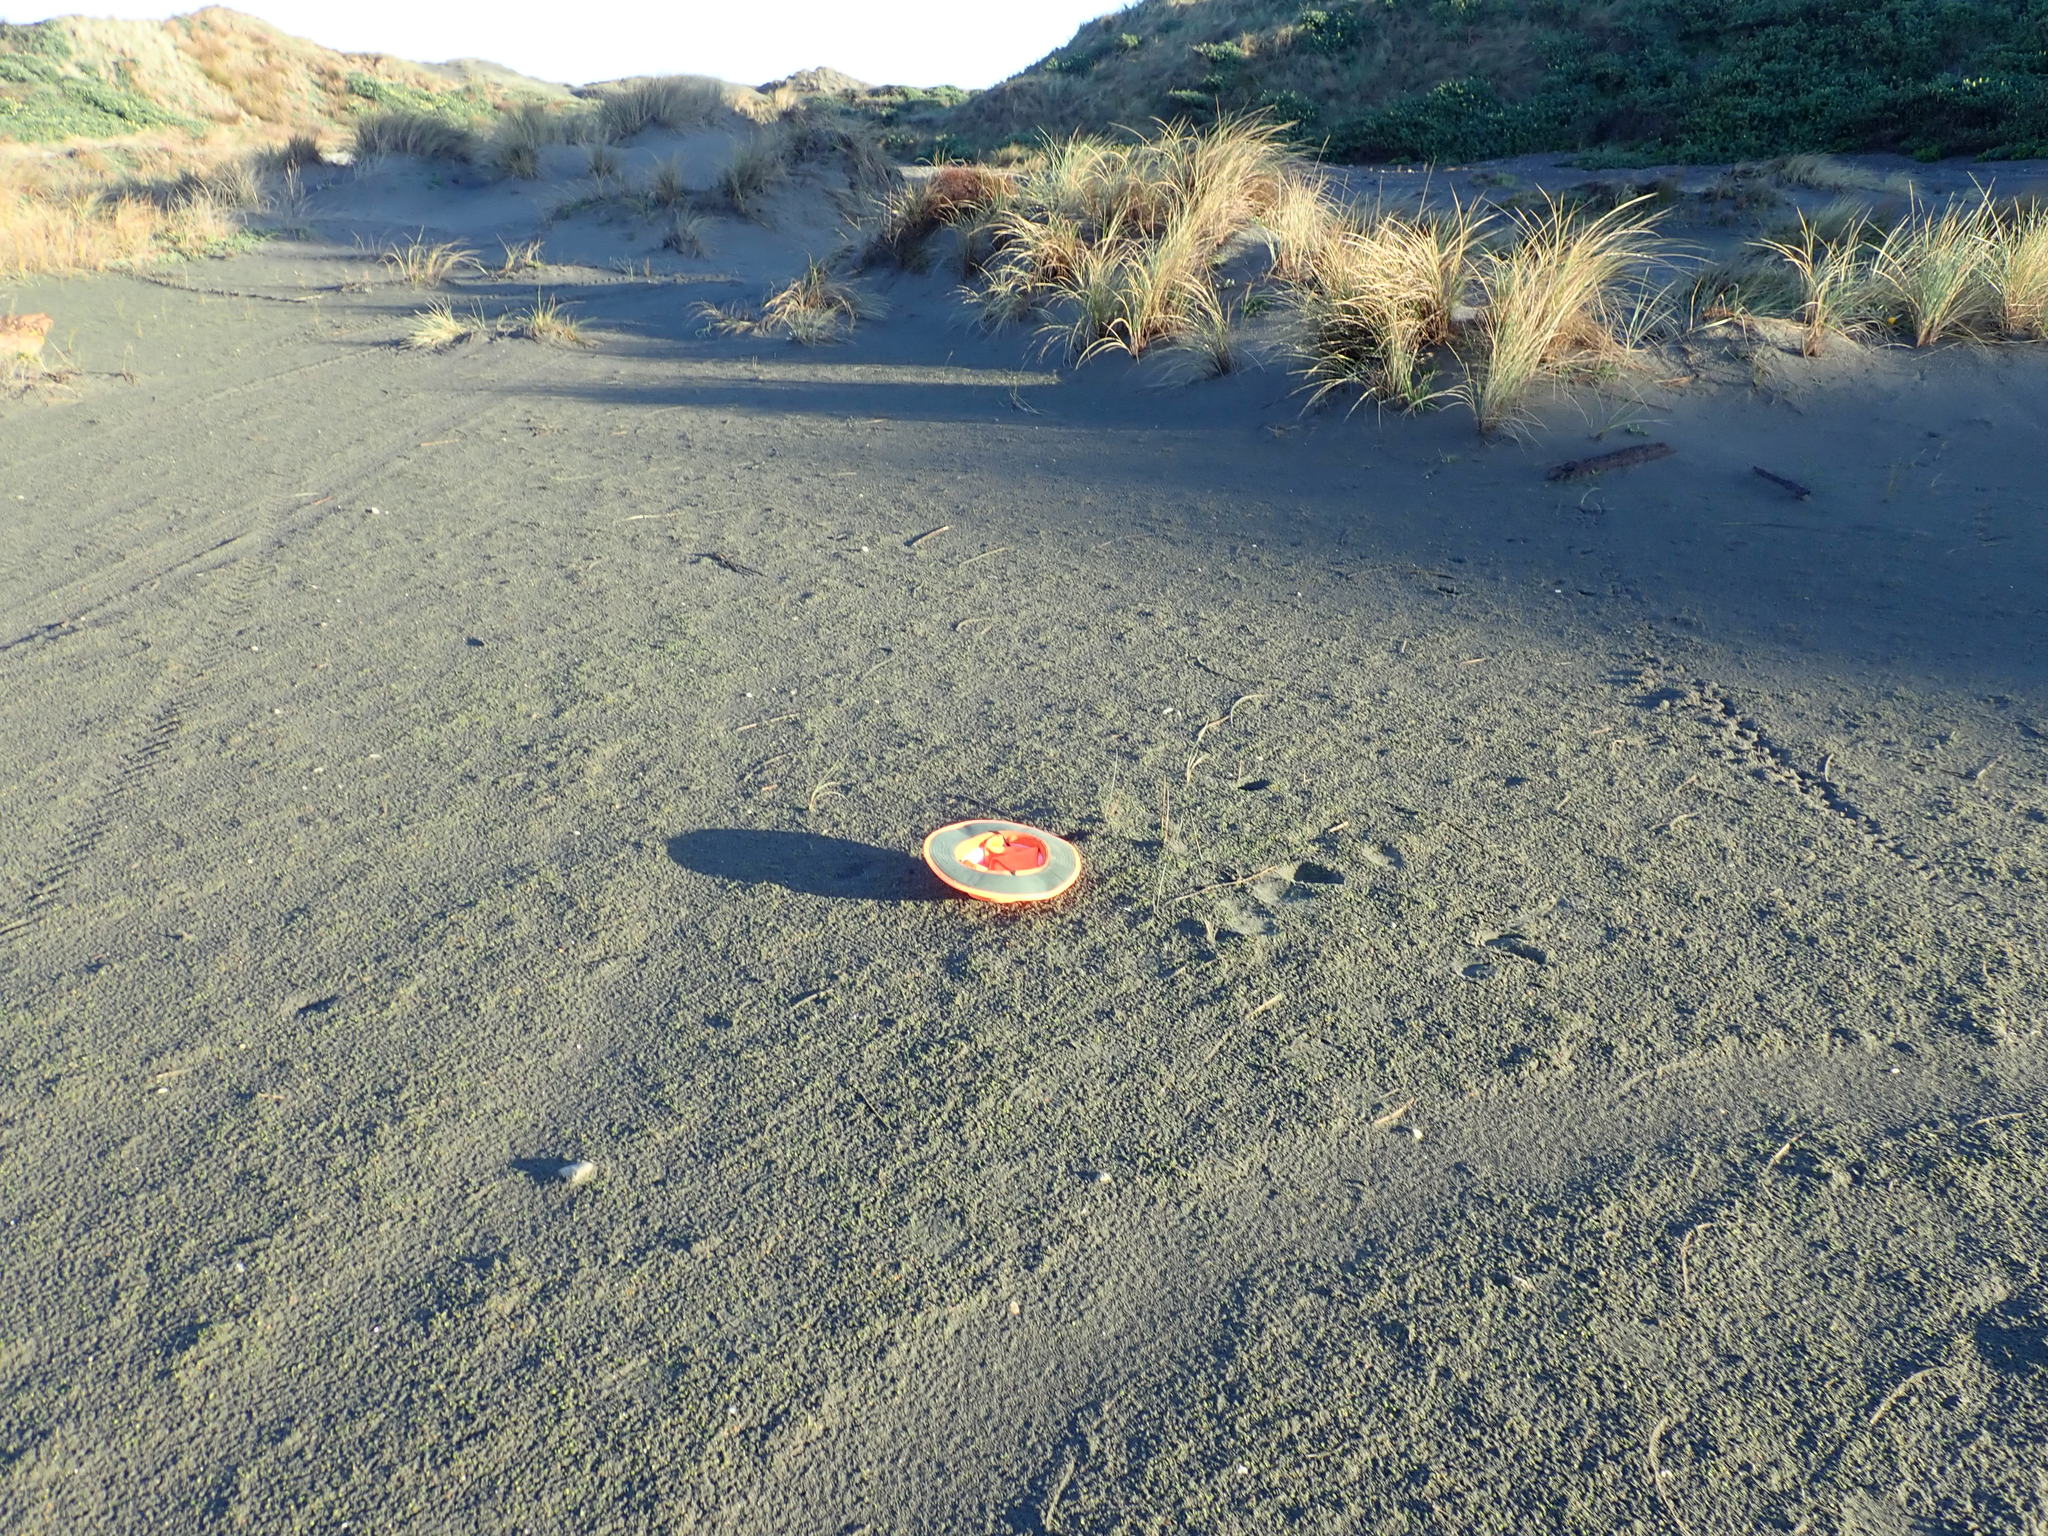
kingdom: Plantae
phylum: Tracheophyta
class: Magnoliopsida
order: Apiales
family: Apiaceae
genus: Lilaeopsis
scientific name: Lilaeopsis novae-zelandiae
